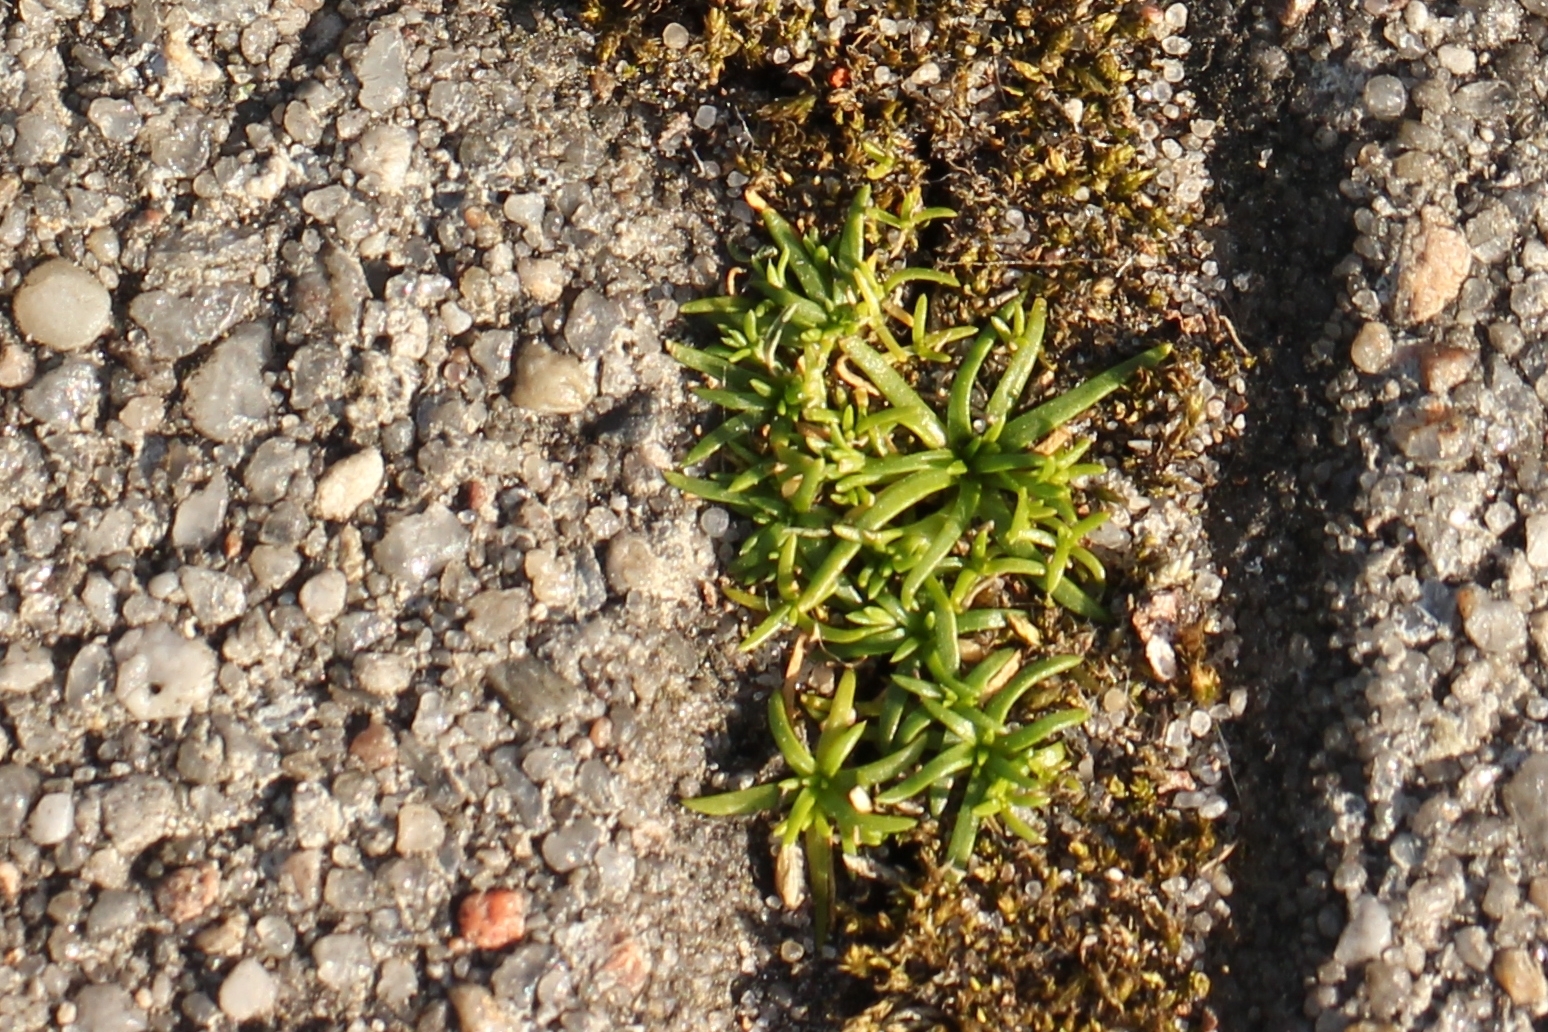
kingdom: Plantae
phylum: Tracheophyta
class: Magnoliopsida
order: Caryophyllales
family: Caryophyllaceae
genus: Sagina
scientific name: Sagina procumbens
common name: Procumbent pearlwort
